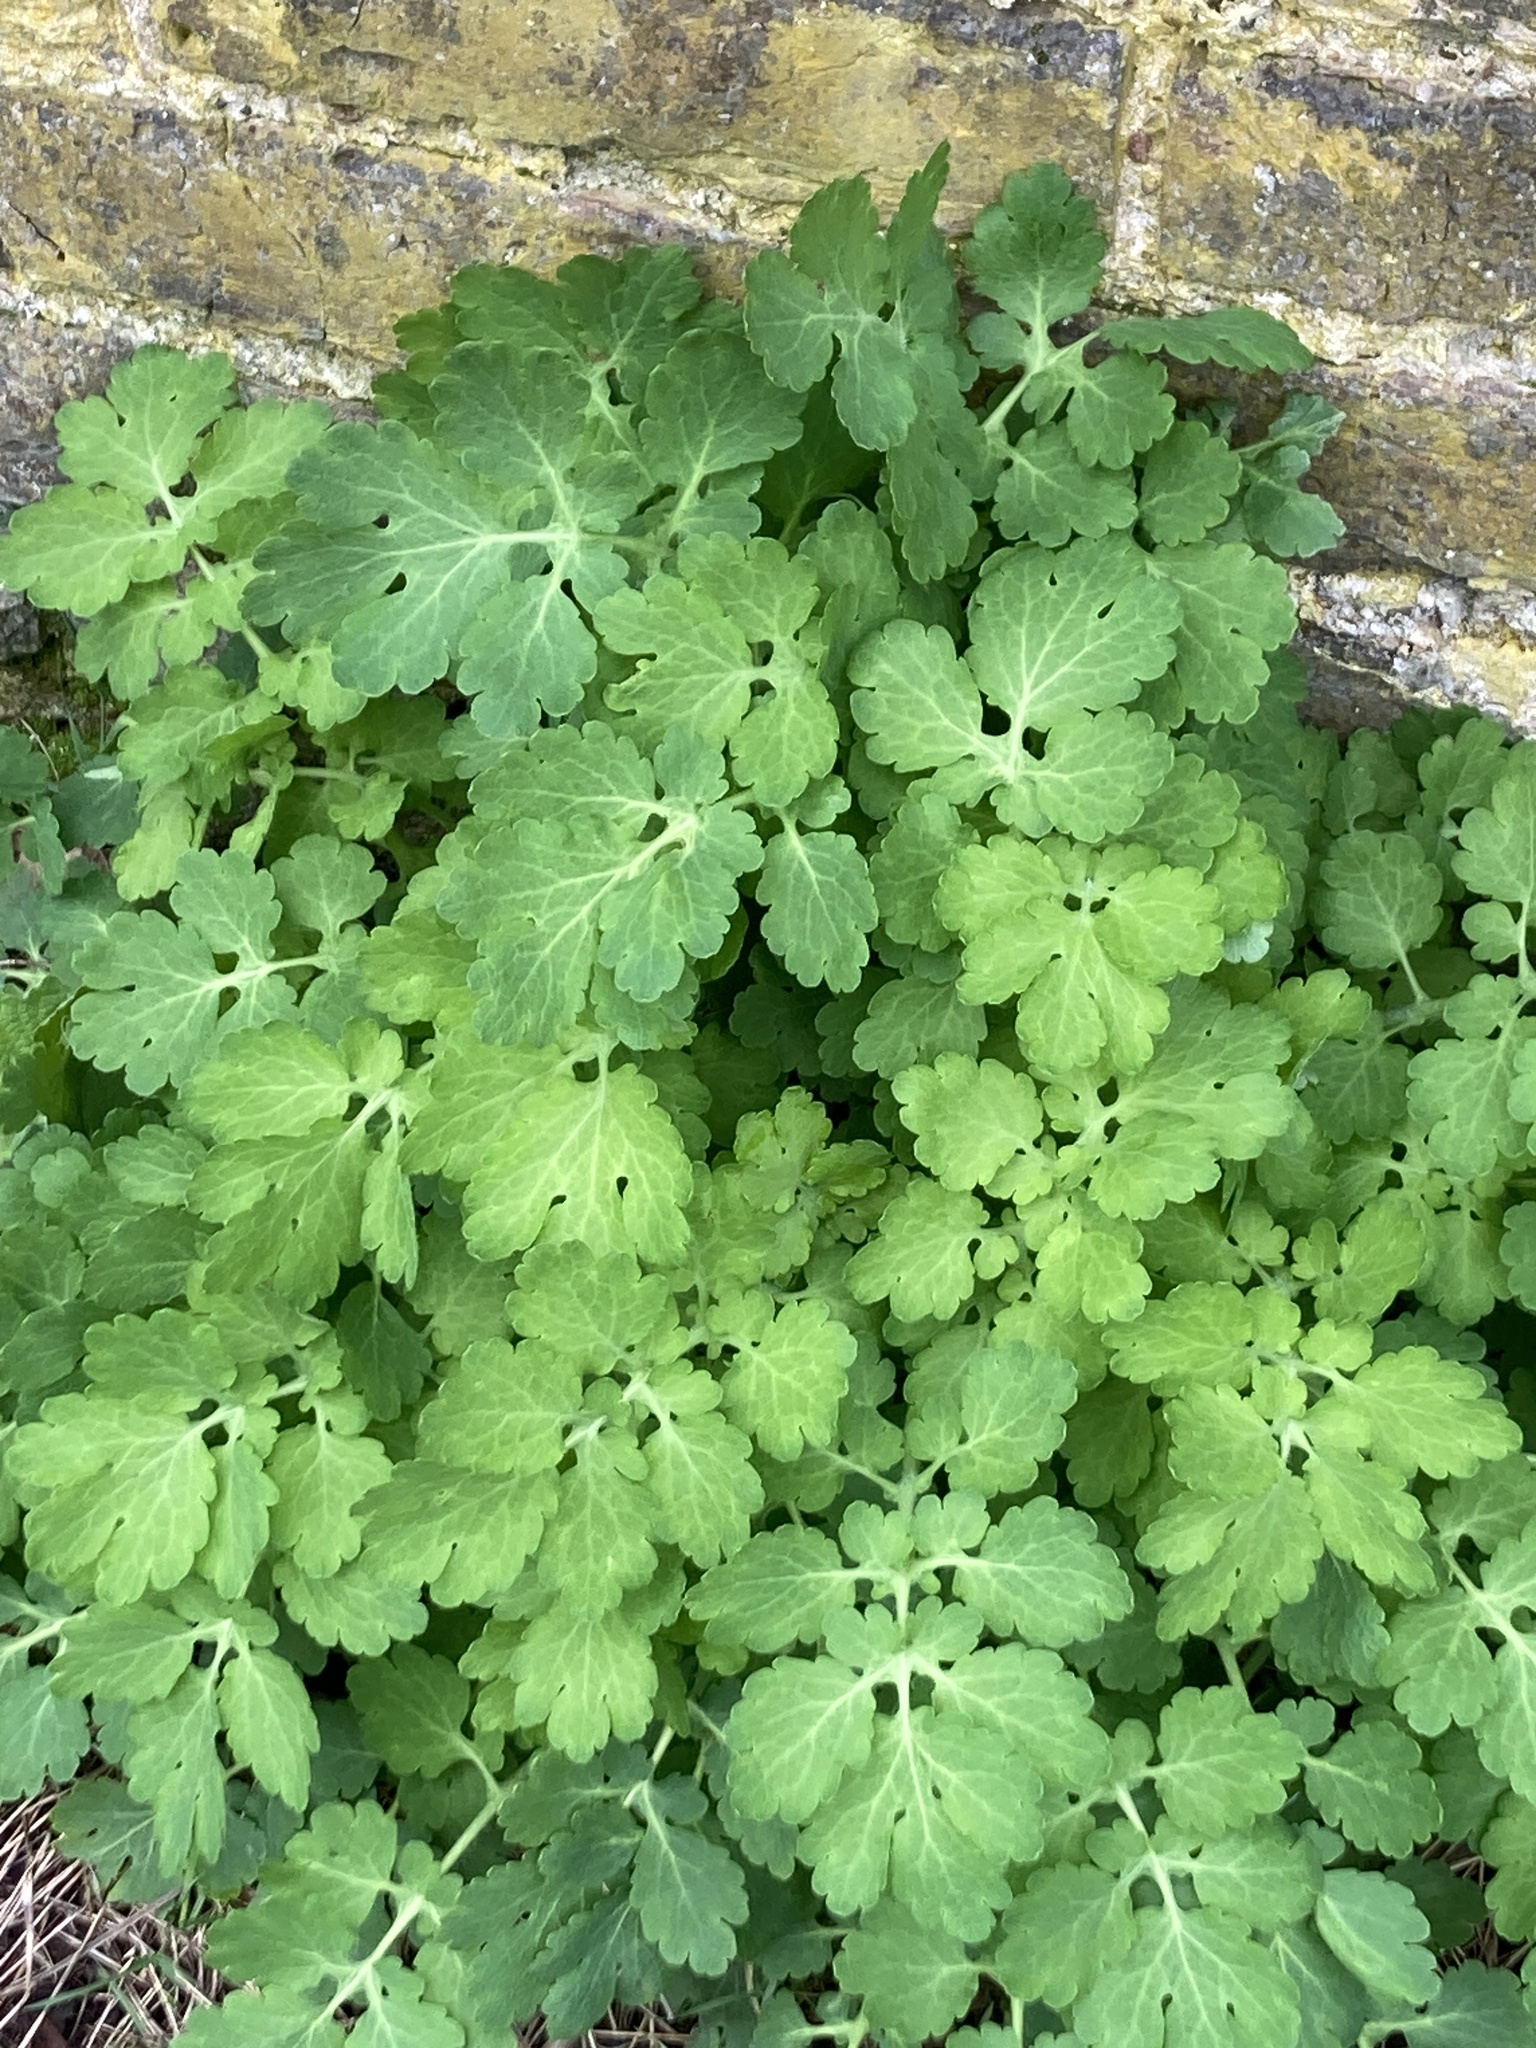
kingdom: Plantae
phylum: Tracheophyta
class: Magnoliopsida
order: Ranunculales
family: Papaveraceae
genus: Chelidonium
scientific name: Chelidonium majus
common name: Greater celandine
